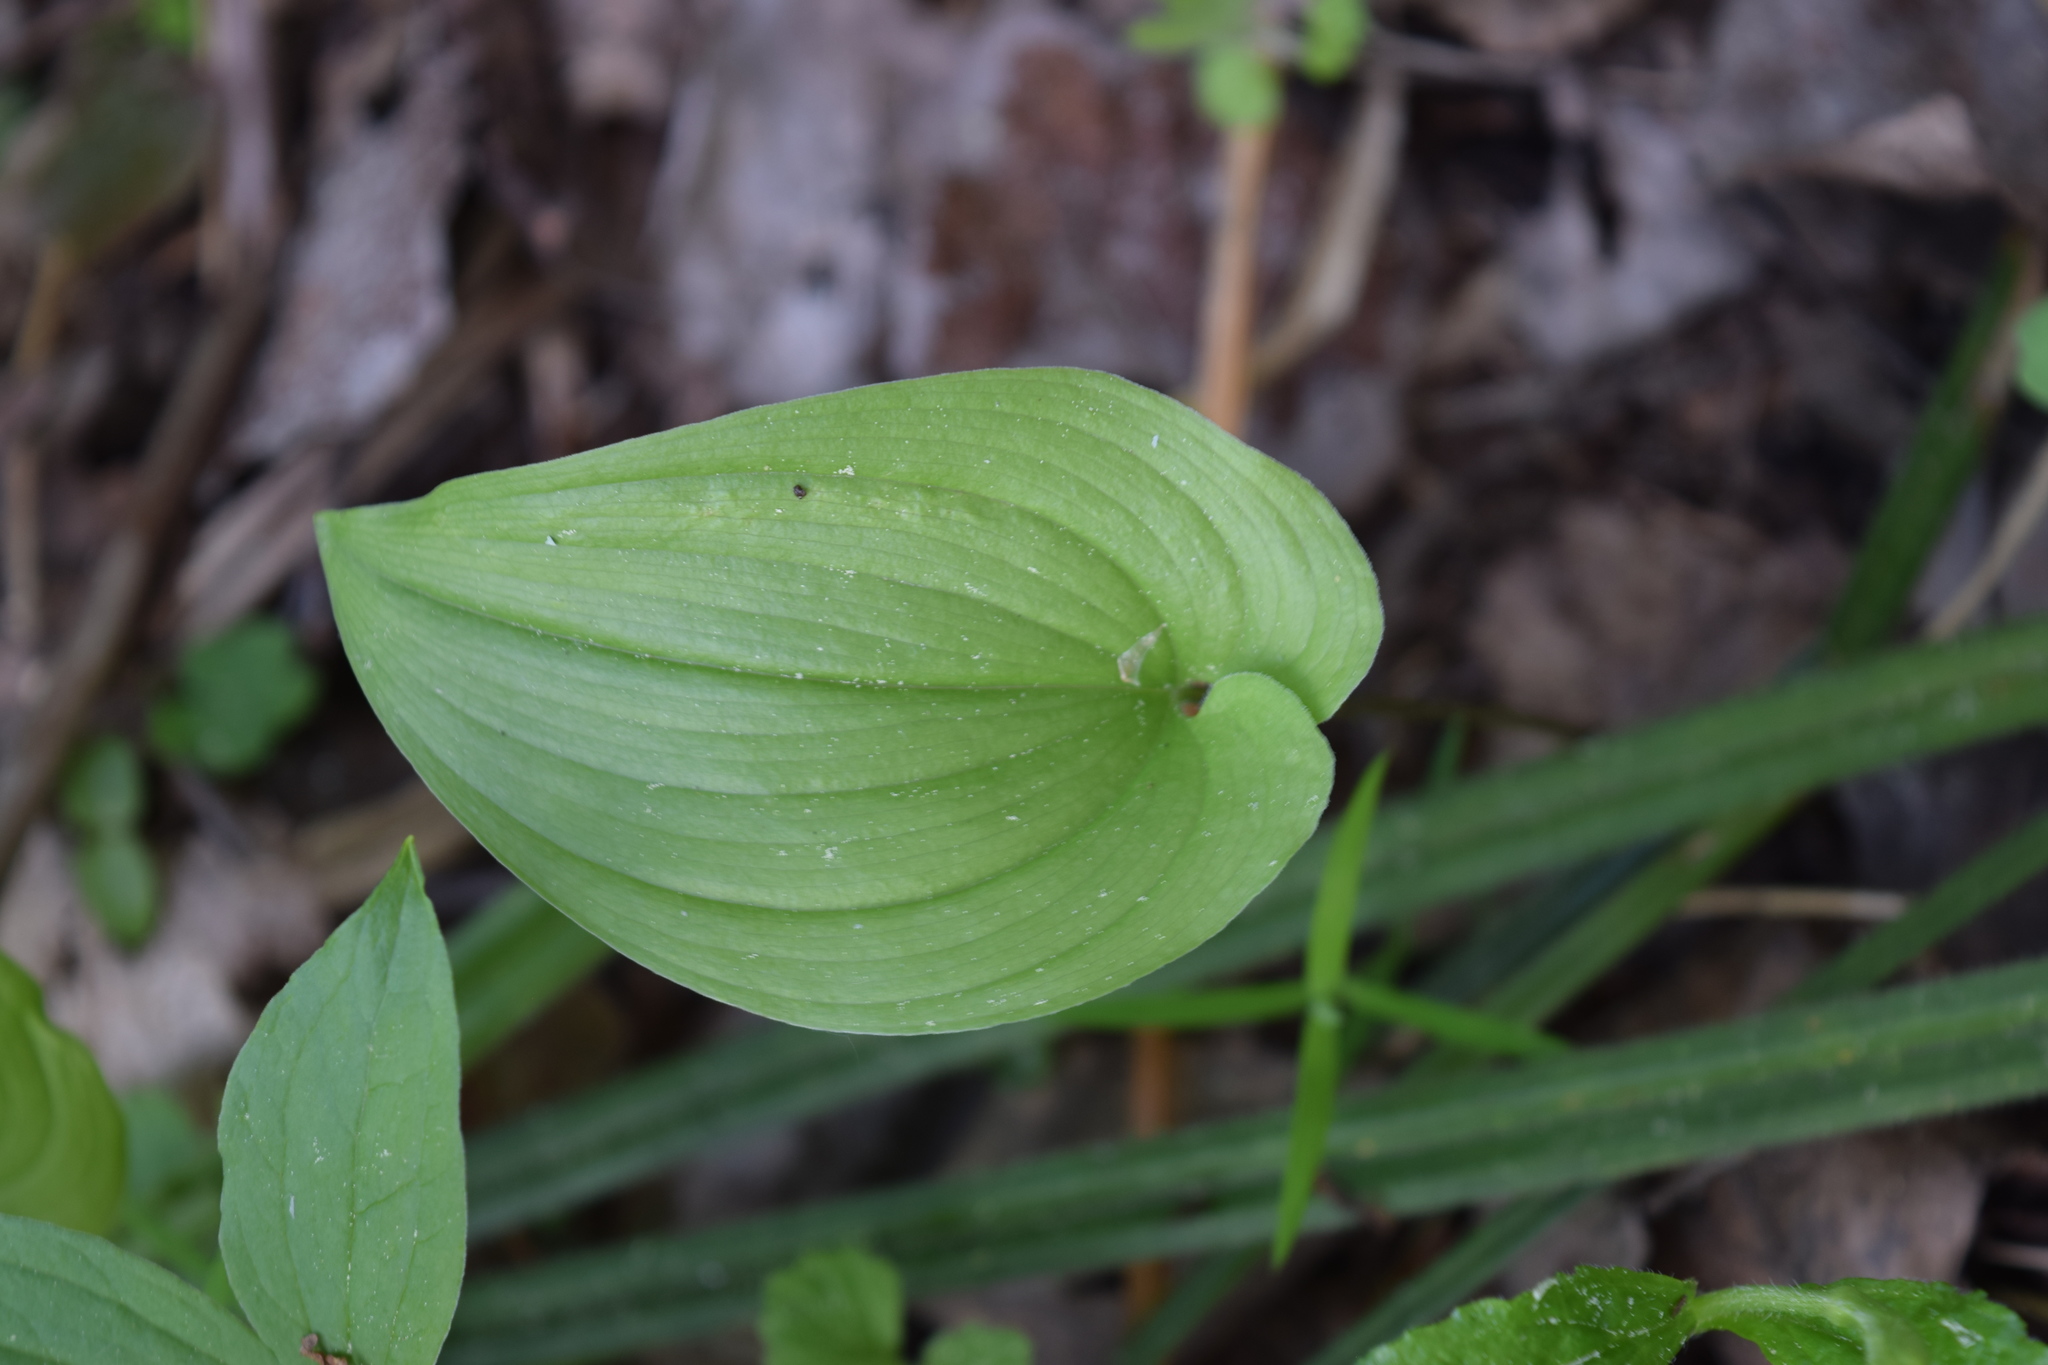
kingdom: Plantae
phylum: Tracheophyta
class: Liliopsida
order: Asparagales
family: Asparagaceae
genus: Maianthemum
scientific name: Maianthemum bifolium
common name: May lily
